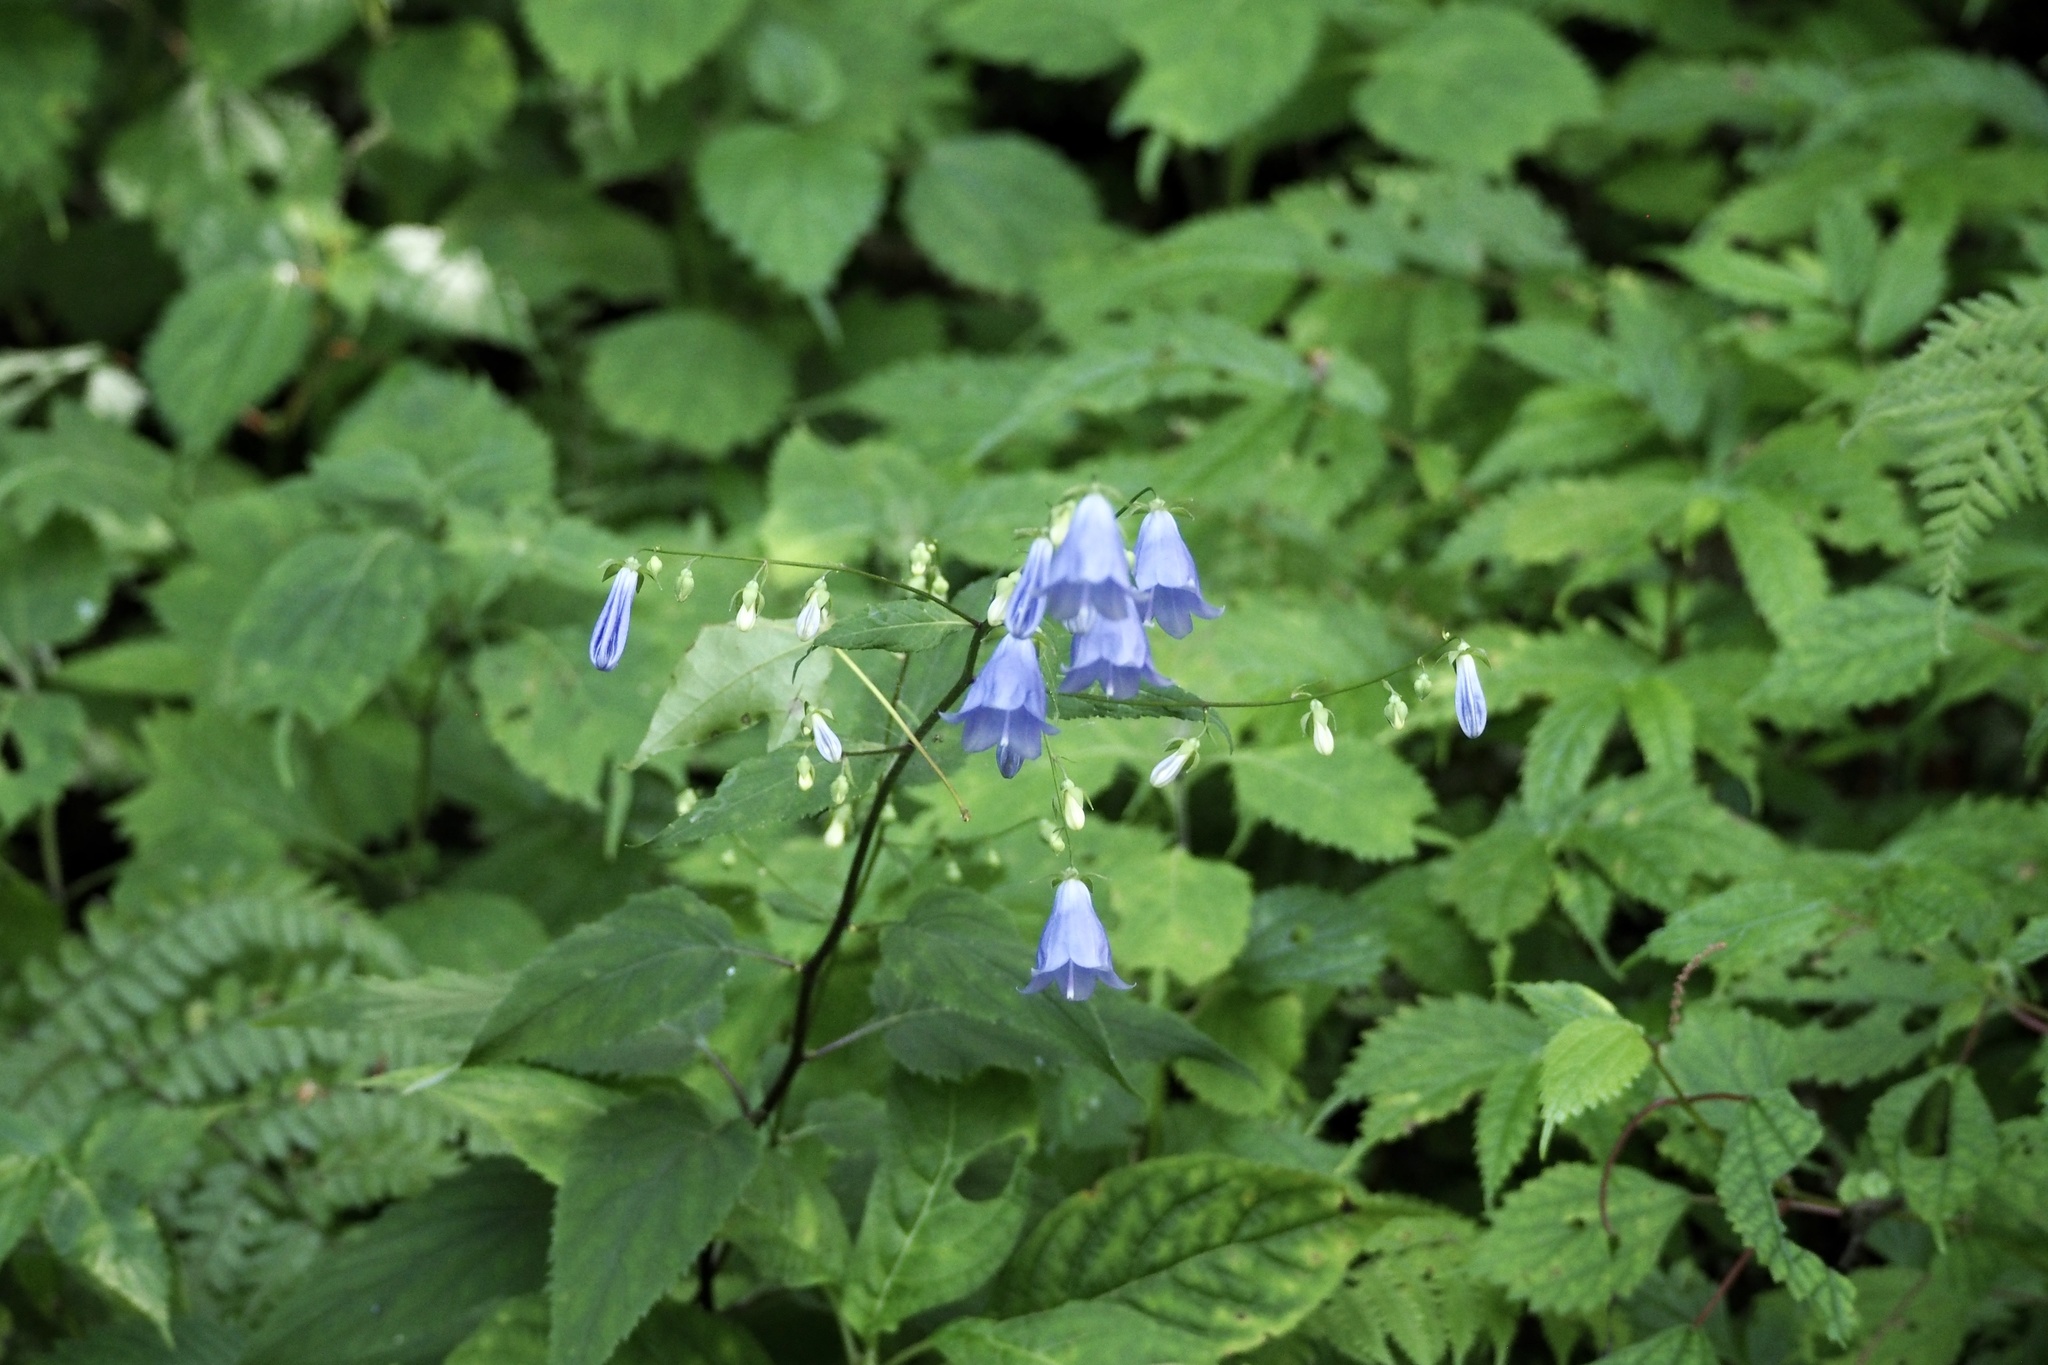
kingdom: Plantae
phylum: Tracheophyta
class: Magnoliopsida
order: Asterales
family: Campanulaceae
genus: Adenophora
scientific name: Adenophora remotiflora
